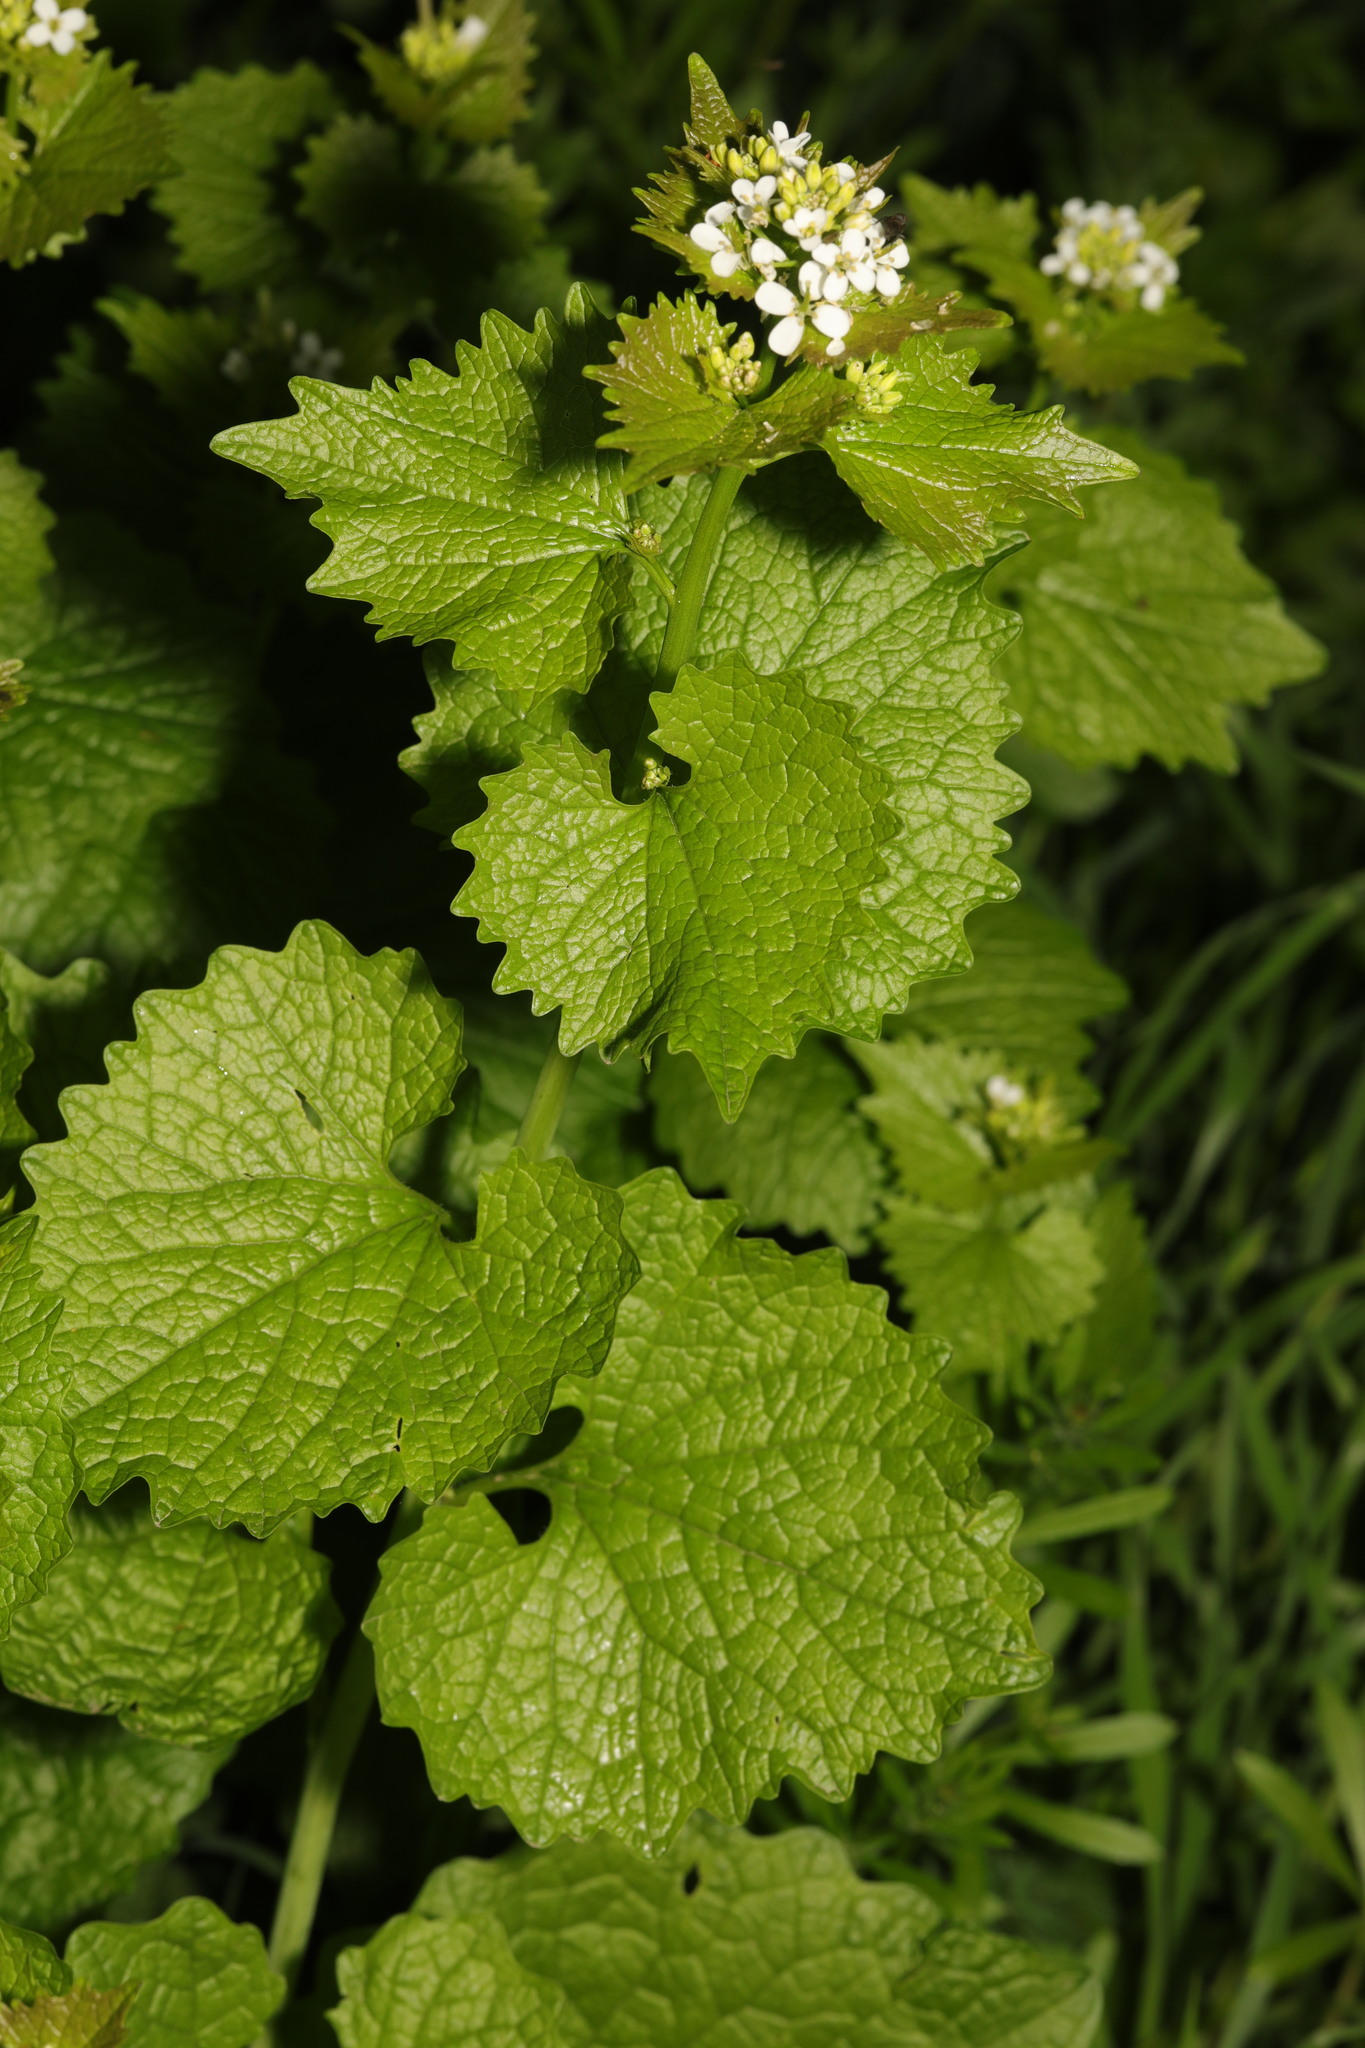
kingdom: Plantae
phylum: Tracheophyta
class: Magnoliopsida
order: Brassicales
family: Brassicaceae
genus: Alliaria
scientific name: Alliaria petiolata
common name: Garlic mustard
